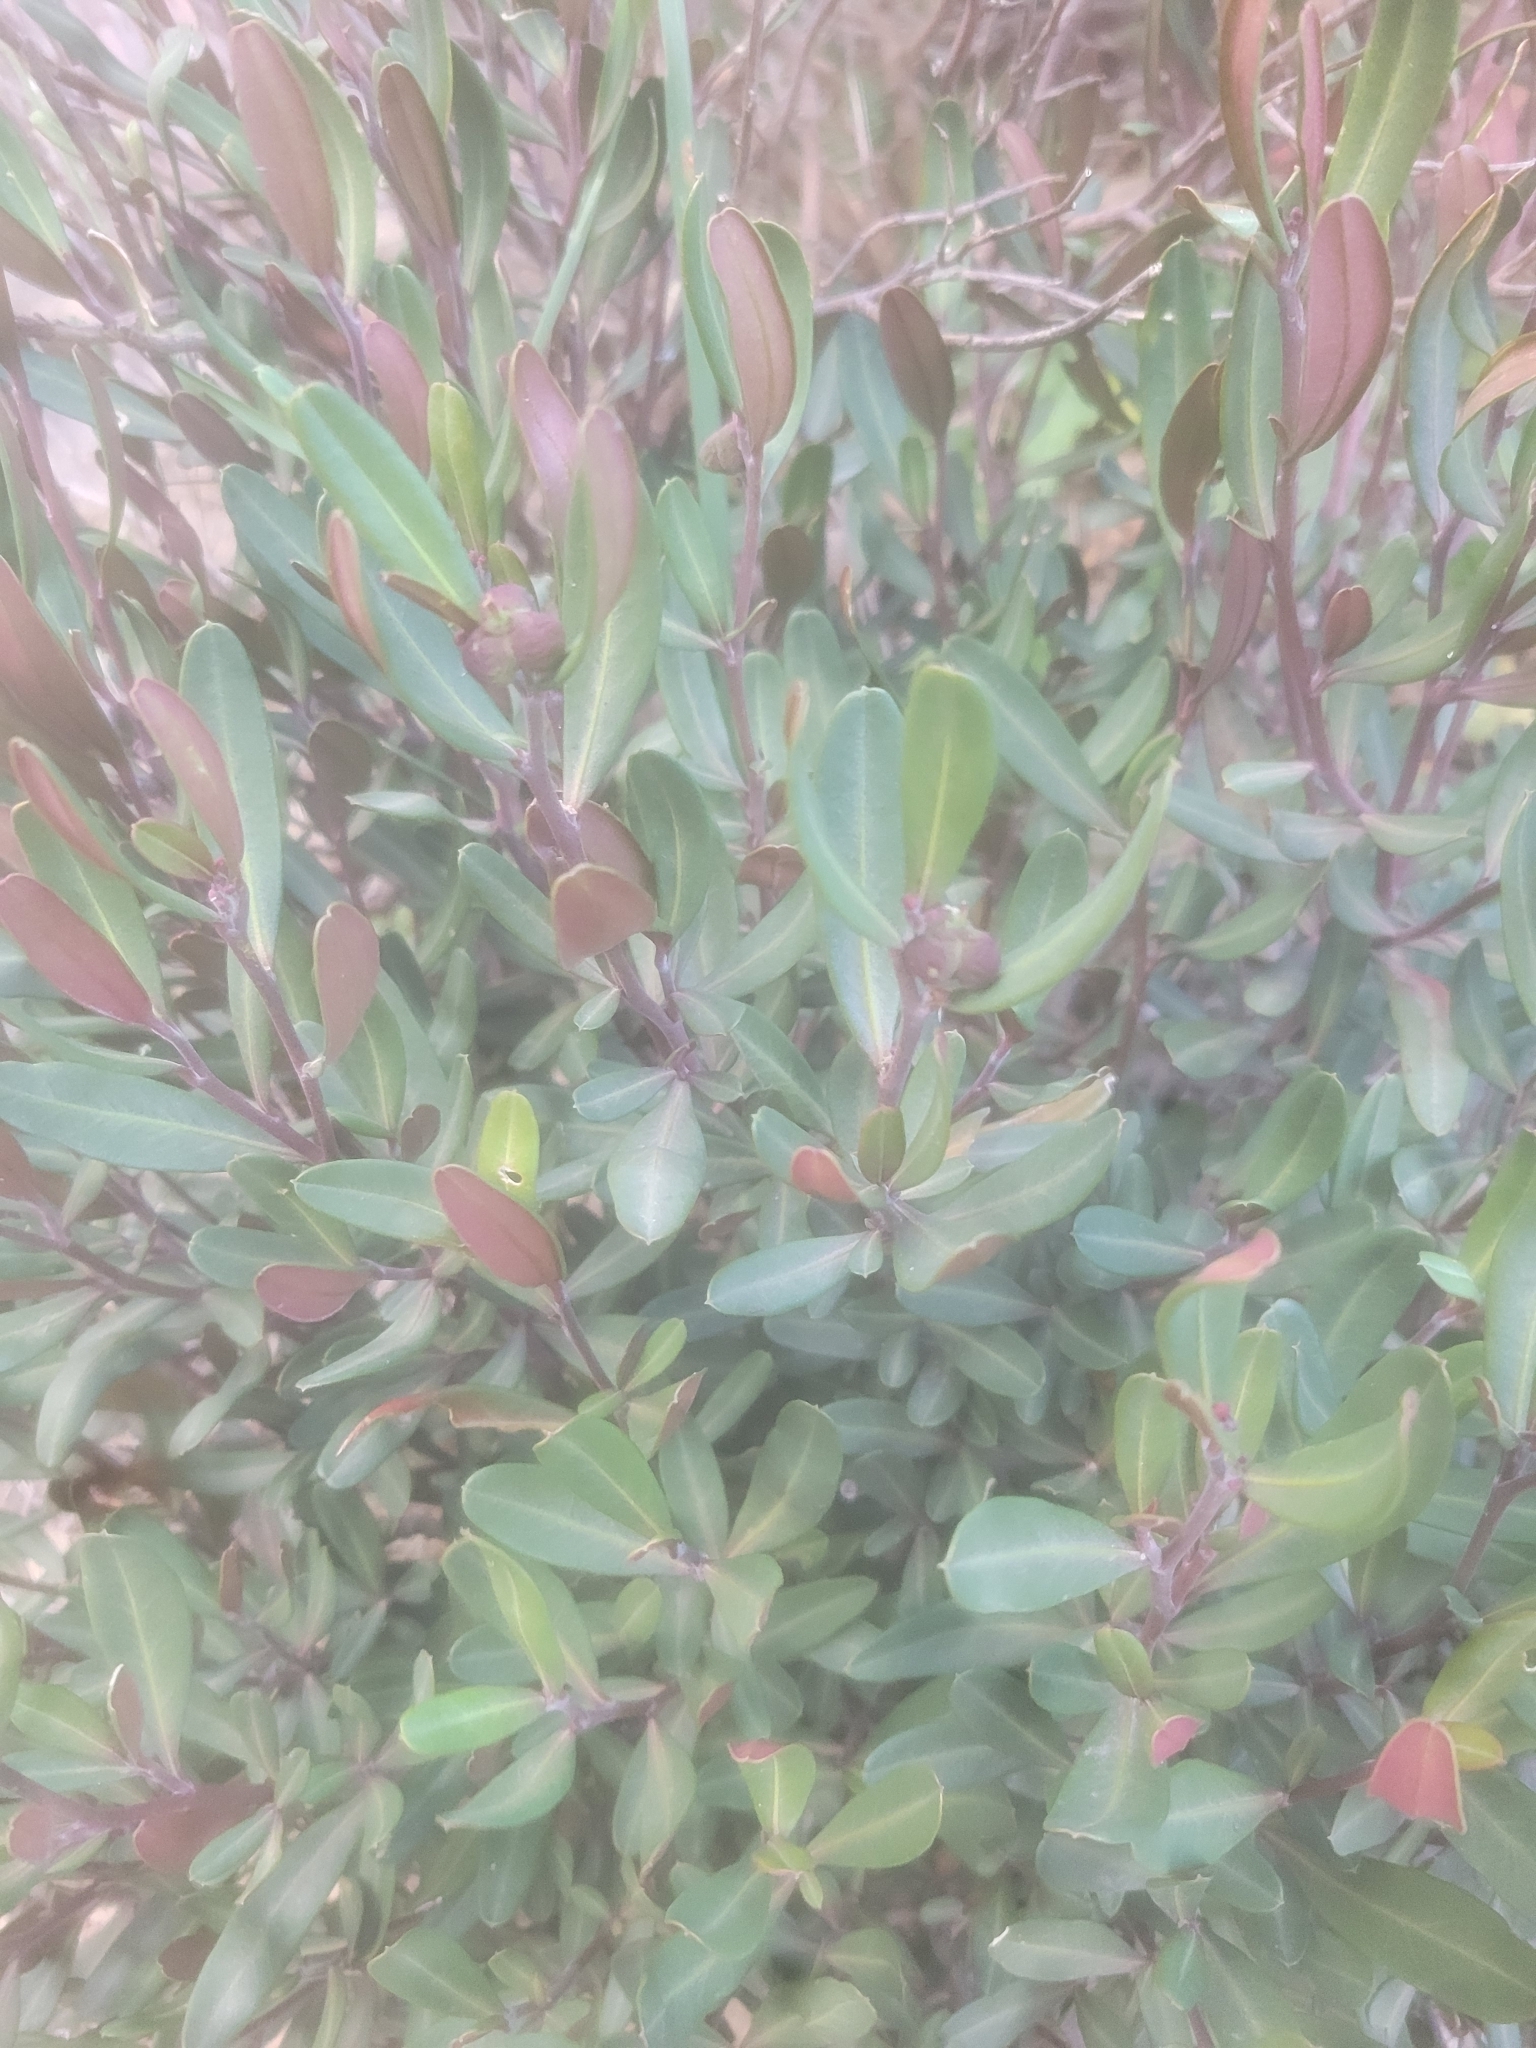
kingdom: Plantae
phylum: Tracheophyta
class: Magnoliopsida
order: Sapindales
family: Rutaceae
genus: Cneorum
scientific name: Cneorum tricoccon
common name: Spurge olive
